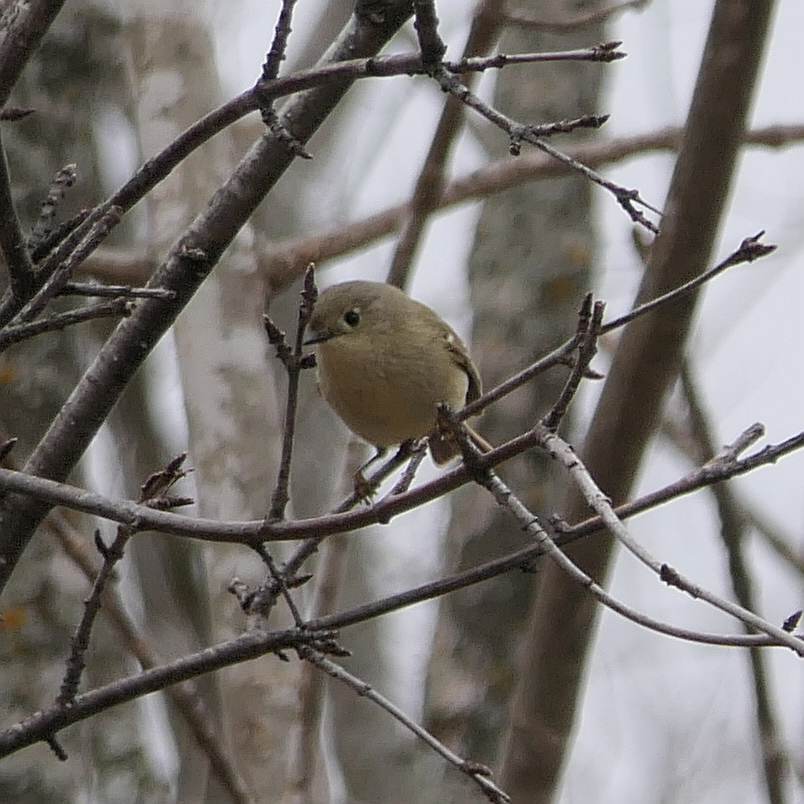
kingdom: Animalia
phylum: Chordata
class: Aves
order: Passeriformes
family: Regulidae
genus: Regulus
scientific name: Regulus calendula
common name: Ruby-crowned kinglet
